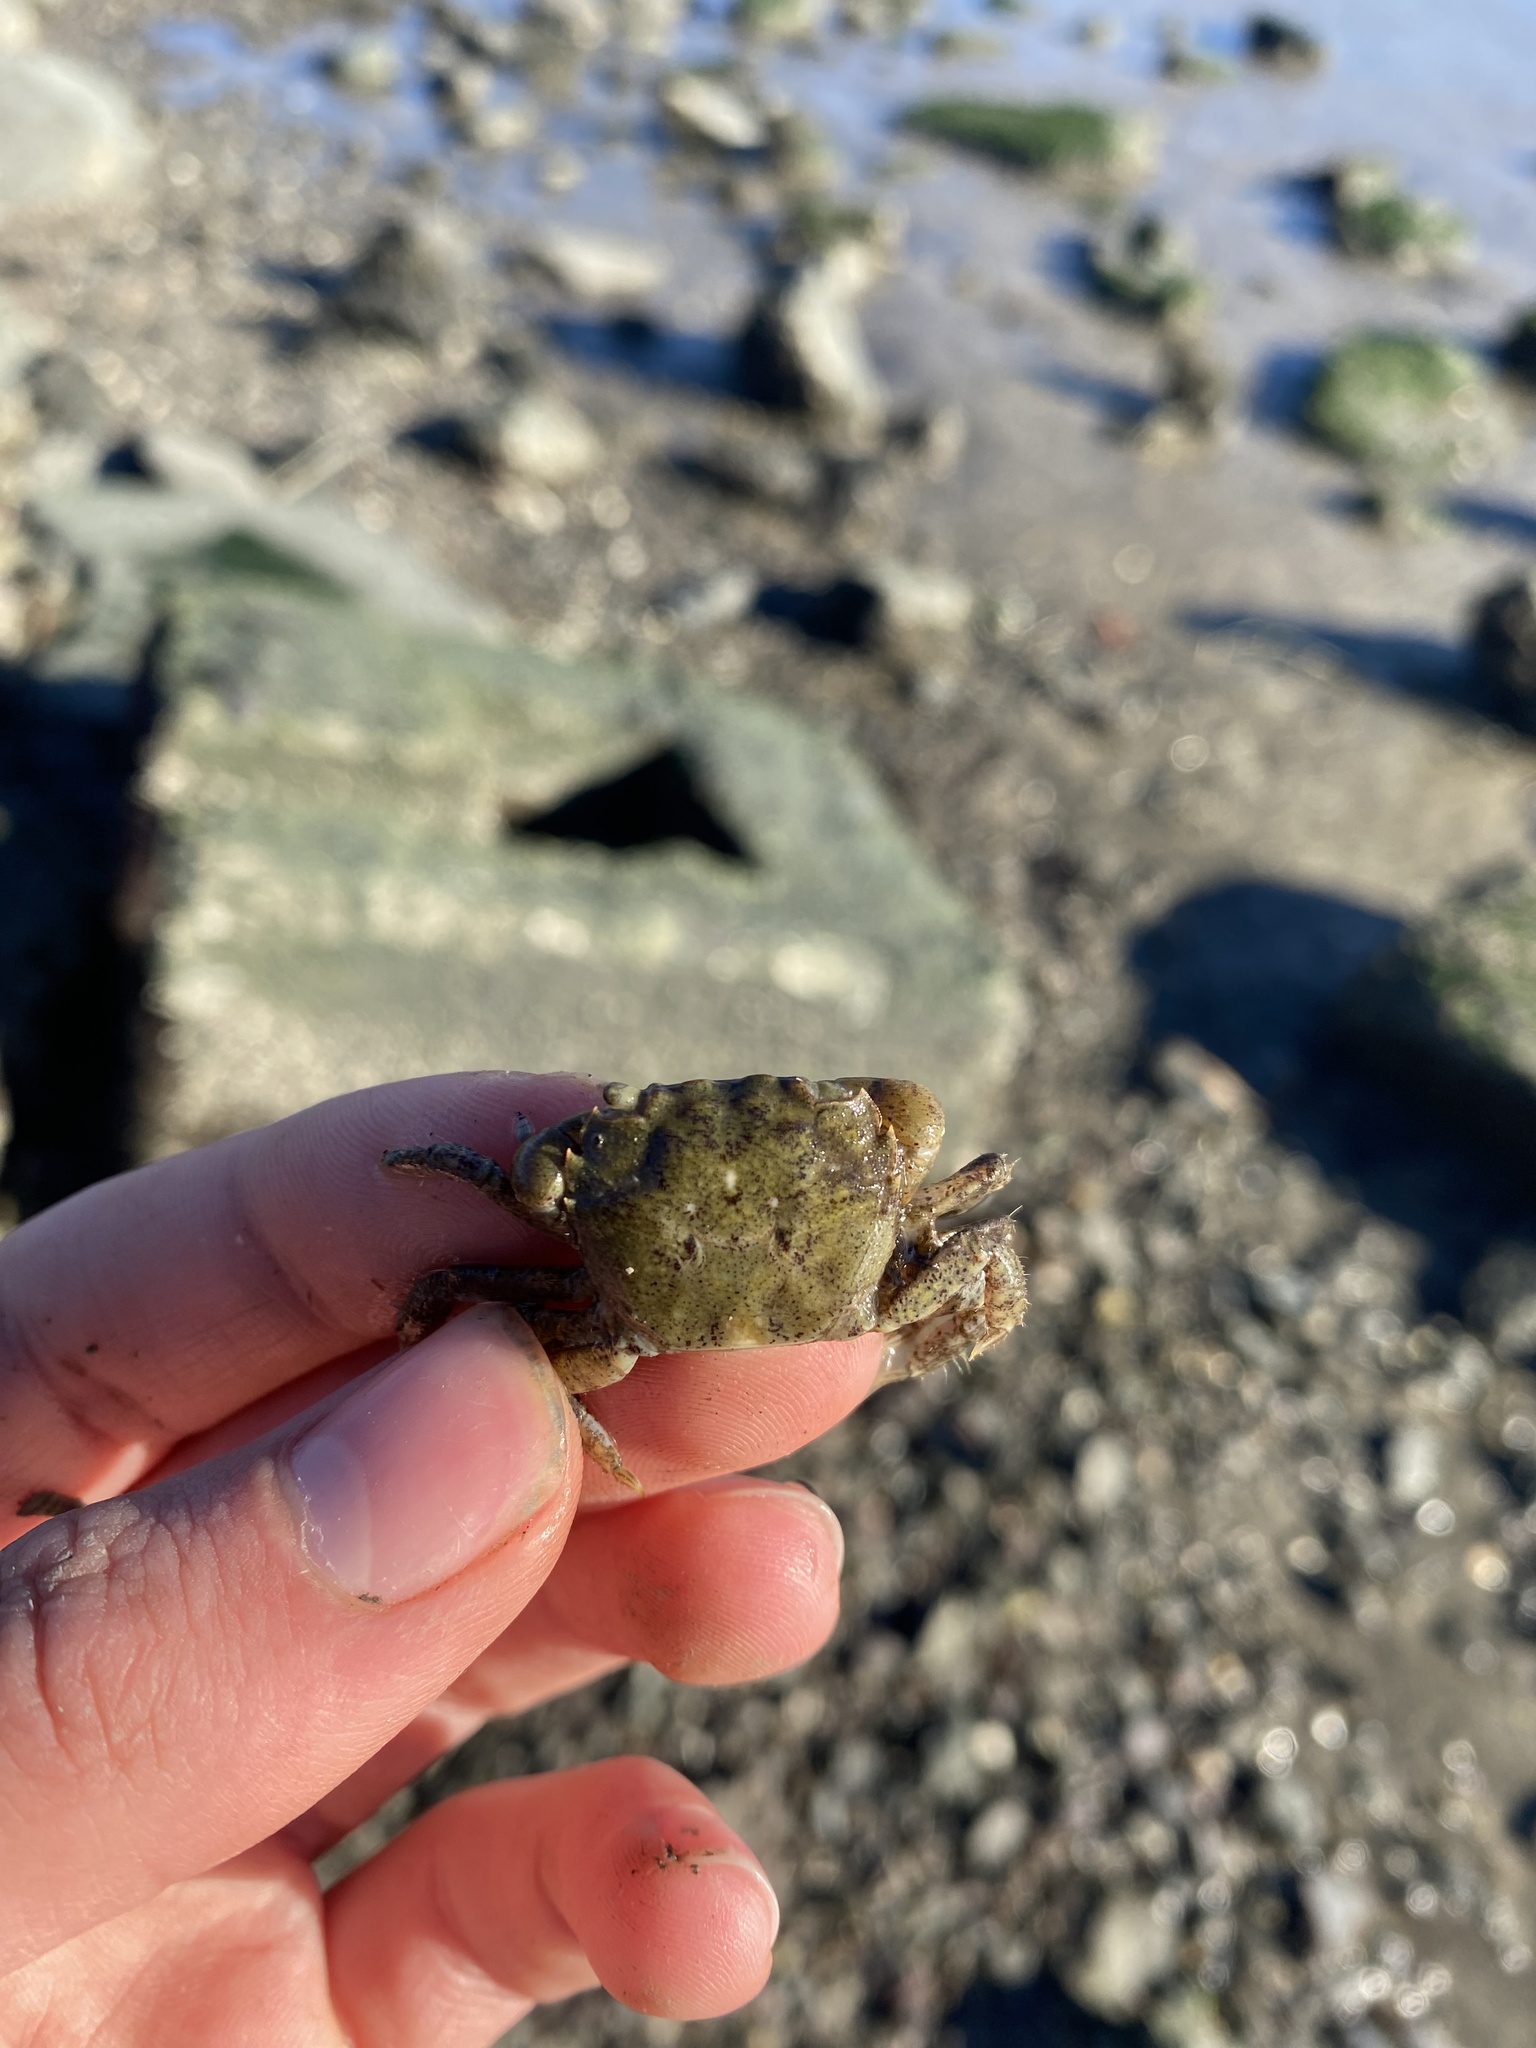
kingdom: Animalia
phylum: Arthropoda
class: Malacostraca
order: Decapoda
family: Varunidae
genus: Hemigrapsus
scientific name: Hemigrapsus oregonensis
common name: Yellow shore crab
